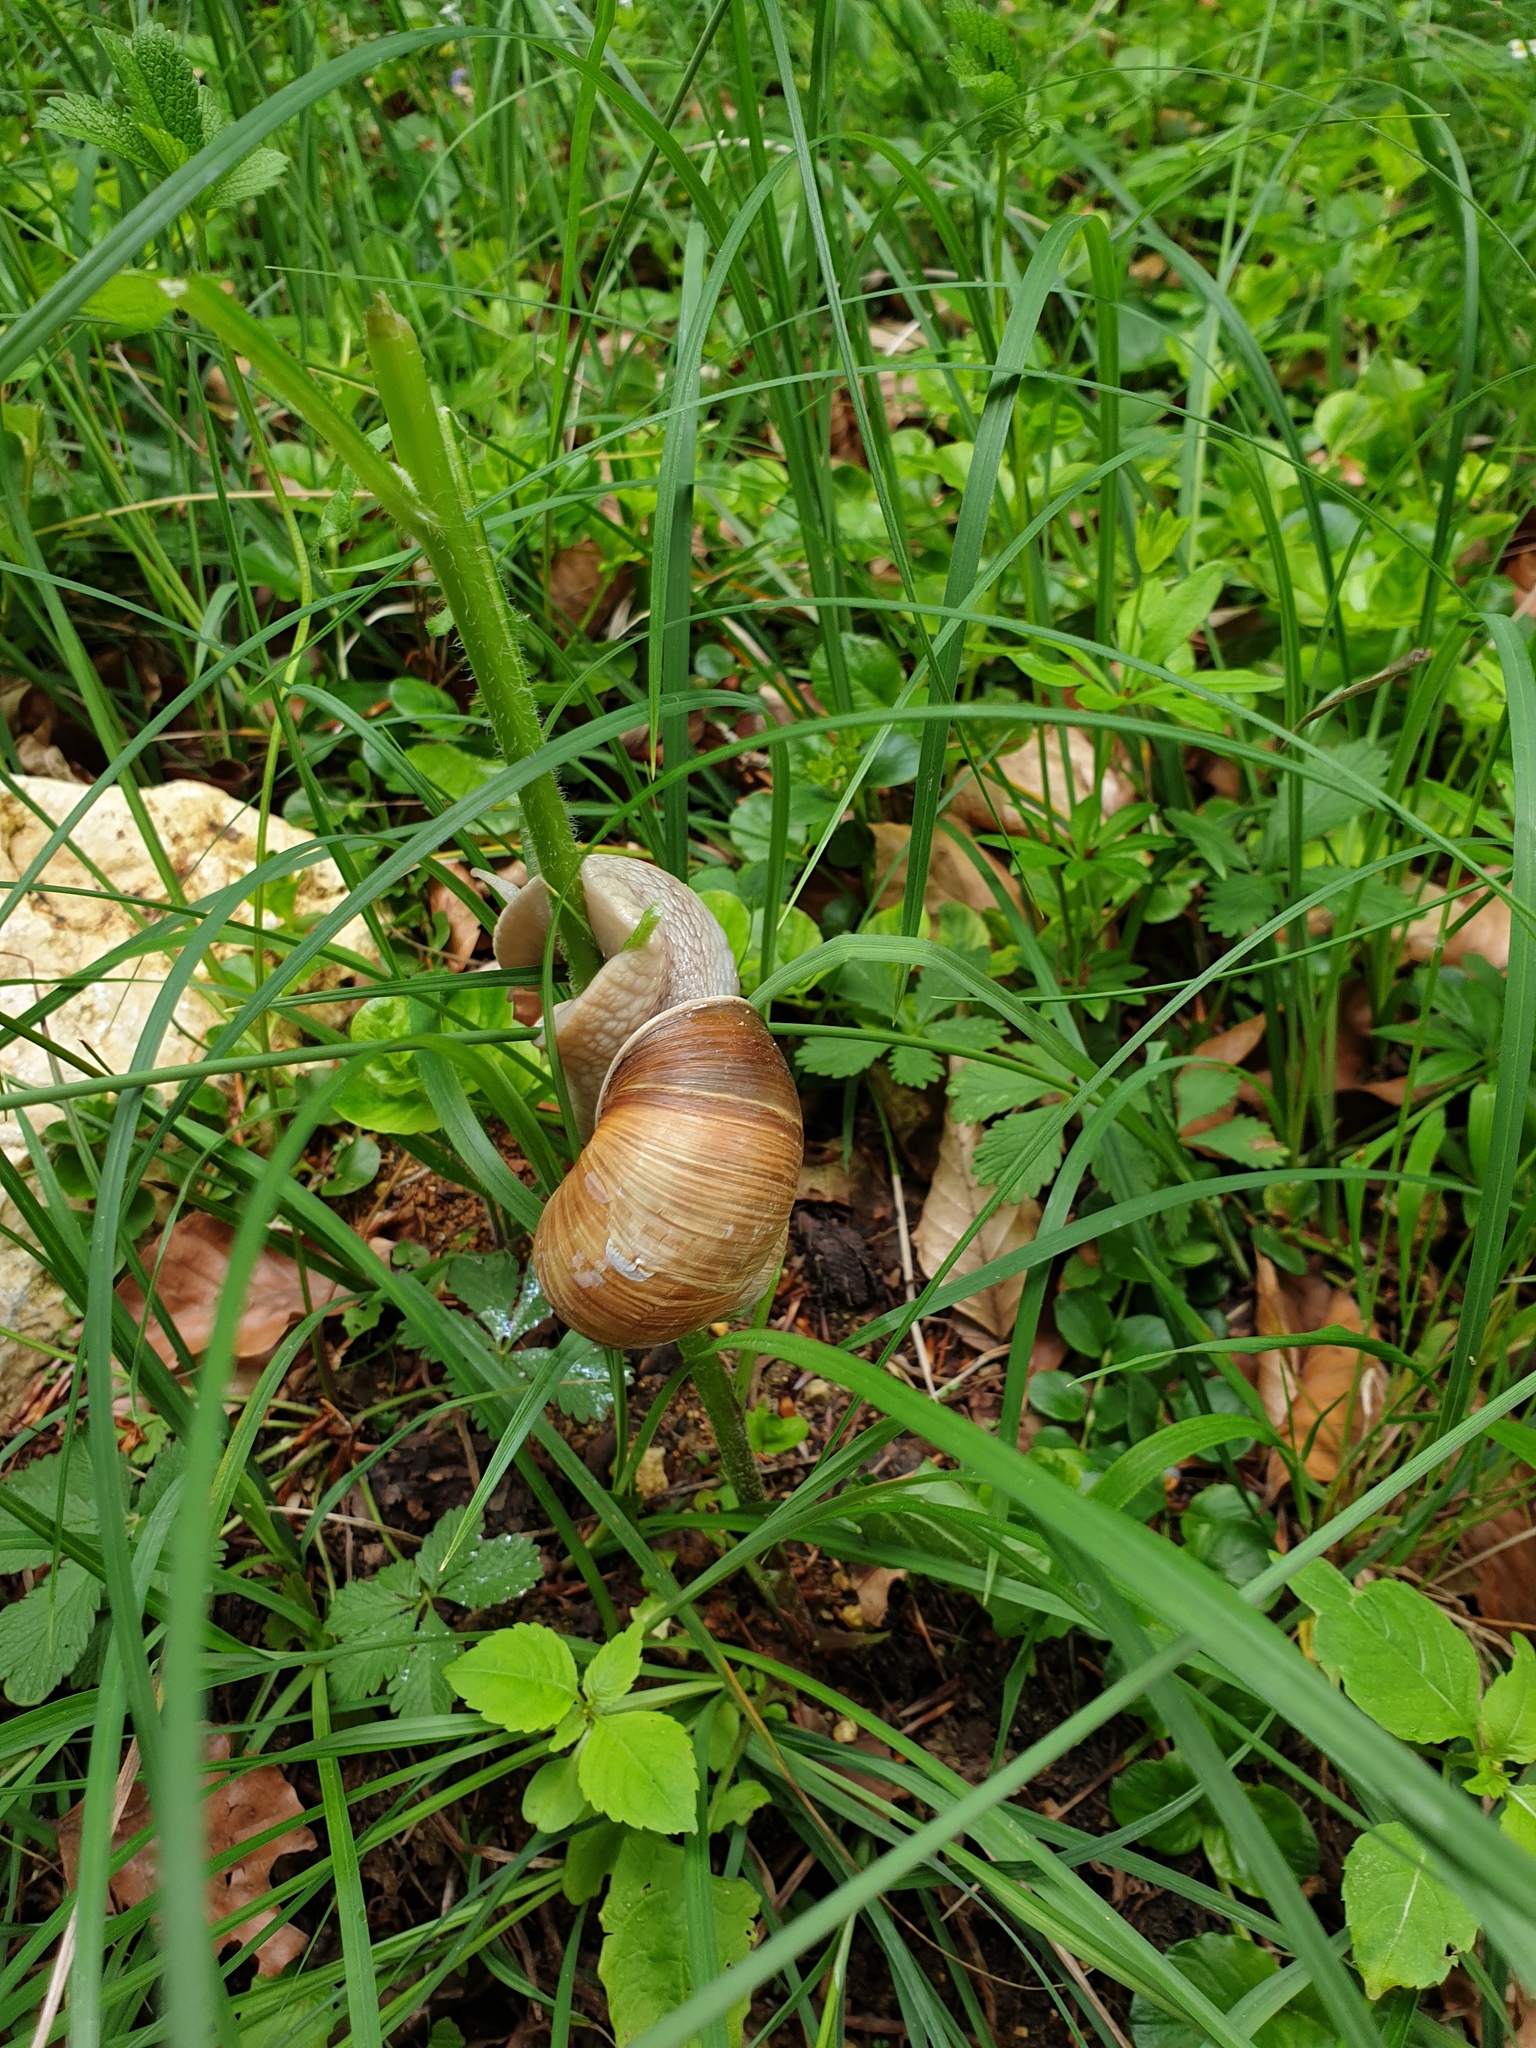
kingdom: Animalia
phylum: Mollusca
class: Gastropoda
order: Stylommatophora
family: Helicidae
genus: Helix
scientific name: Helix pomatia
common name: Roman snail
